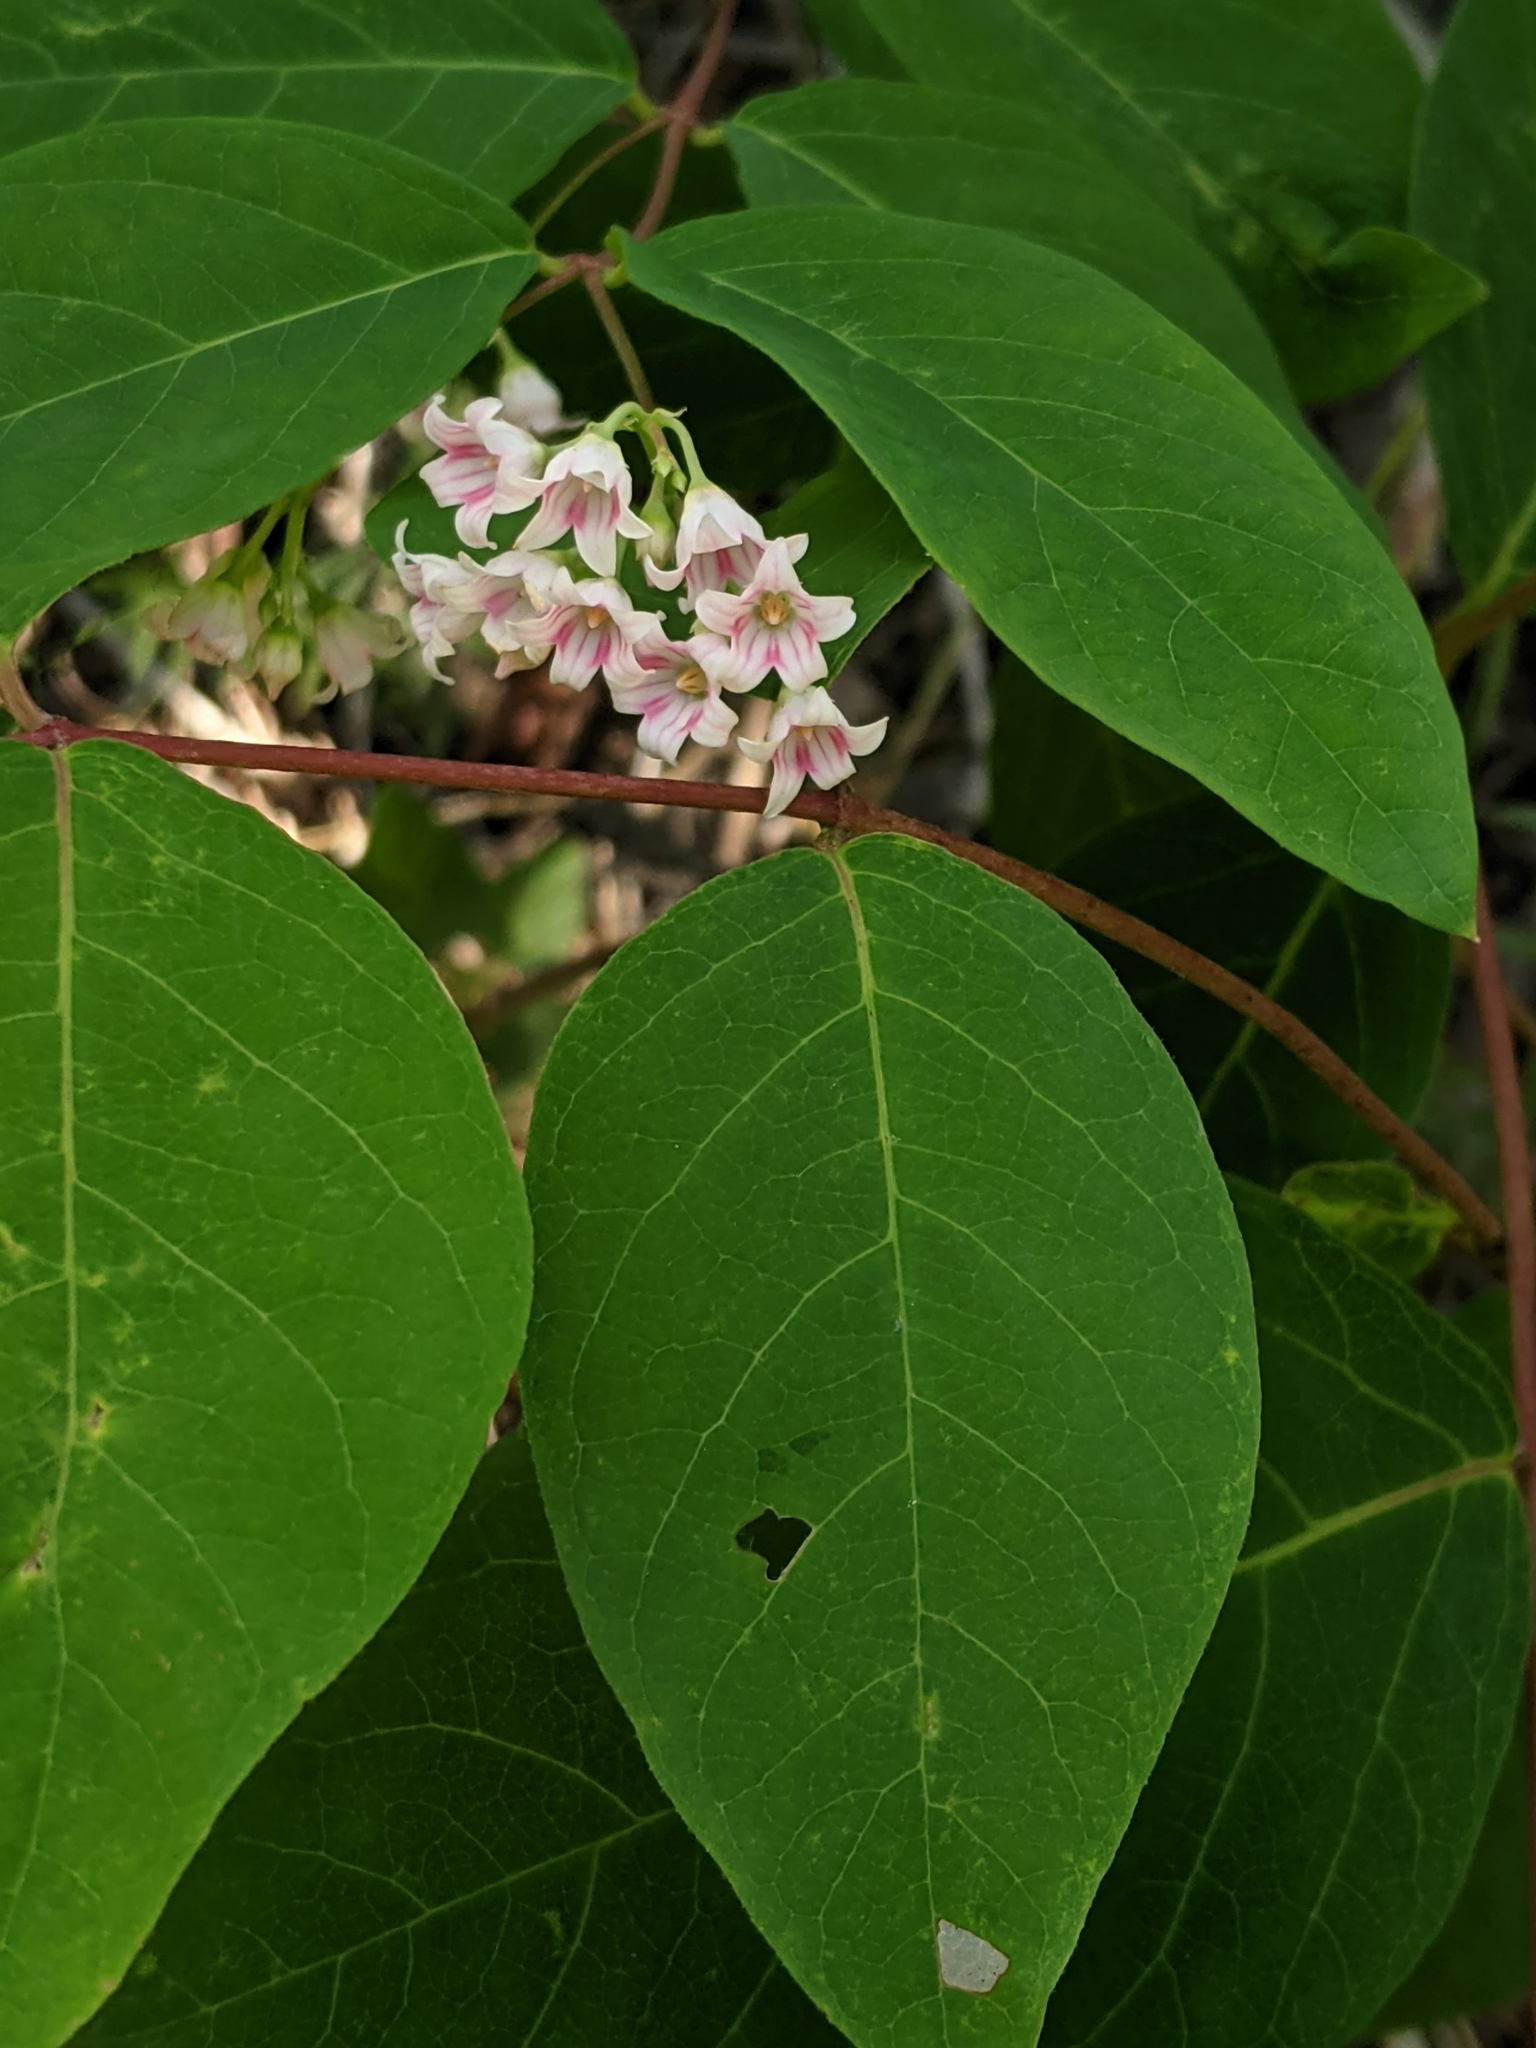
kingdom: Plantae
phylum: Tracheophyta
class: Magnoliopsida
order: Gentianales
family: Apocynaceae
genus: Apocynum
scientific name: Apocynum androsaemifolium
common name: Spreading dogbane
